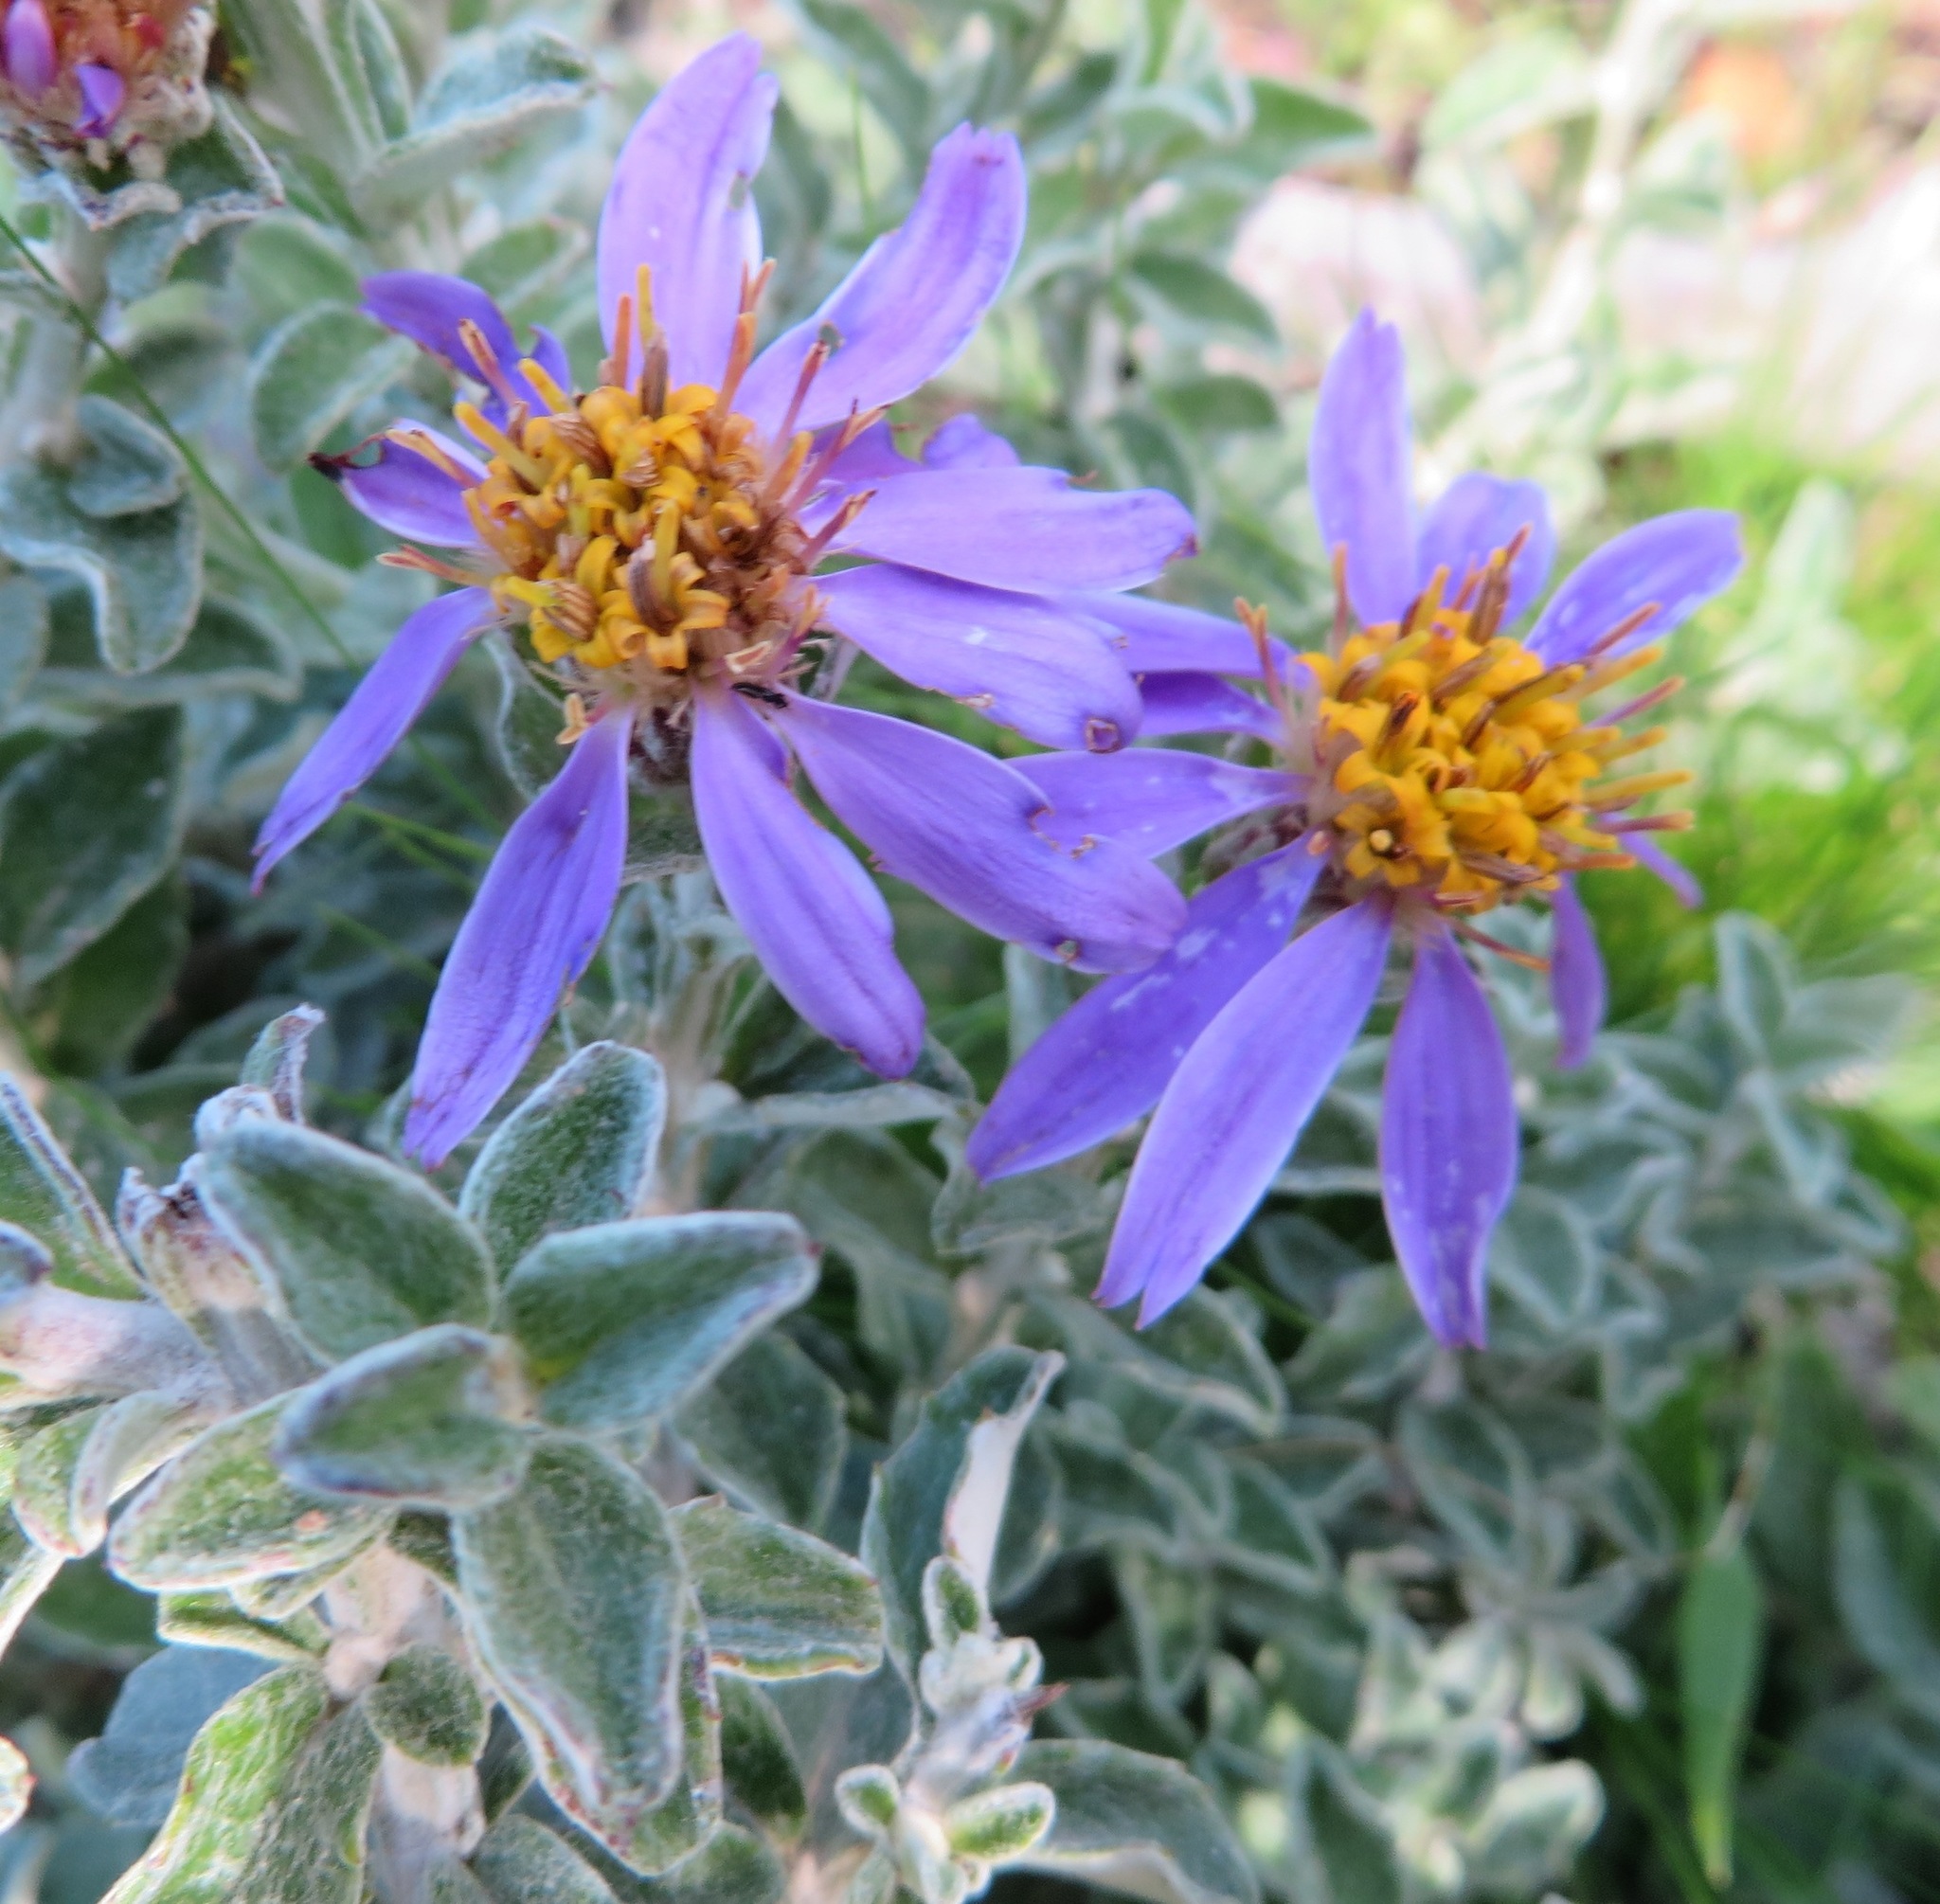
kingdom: Plantae
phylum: Tracheophyta
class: Magnoliopsida
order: Asterales
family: Asteraceae
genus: Printzia
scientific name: Printzia polifolia
